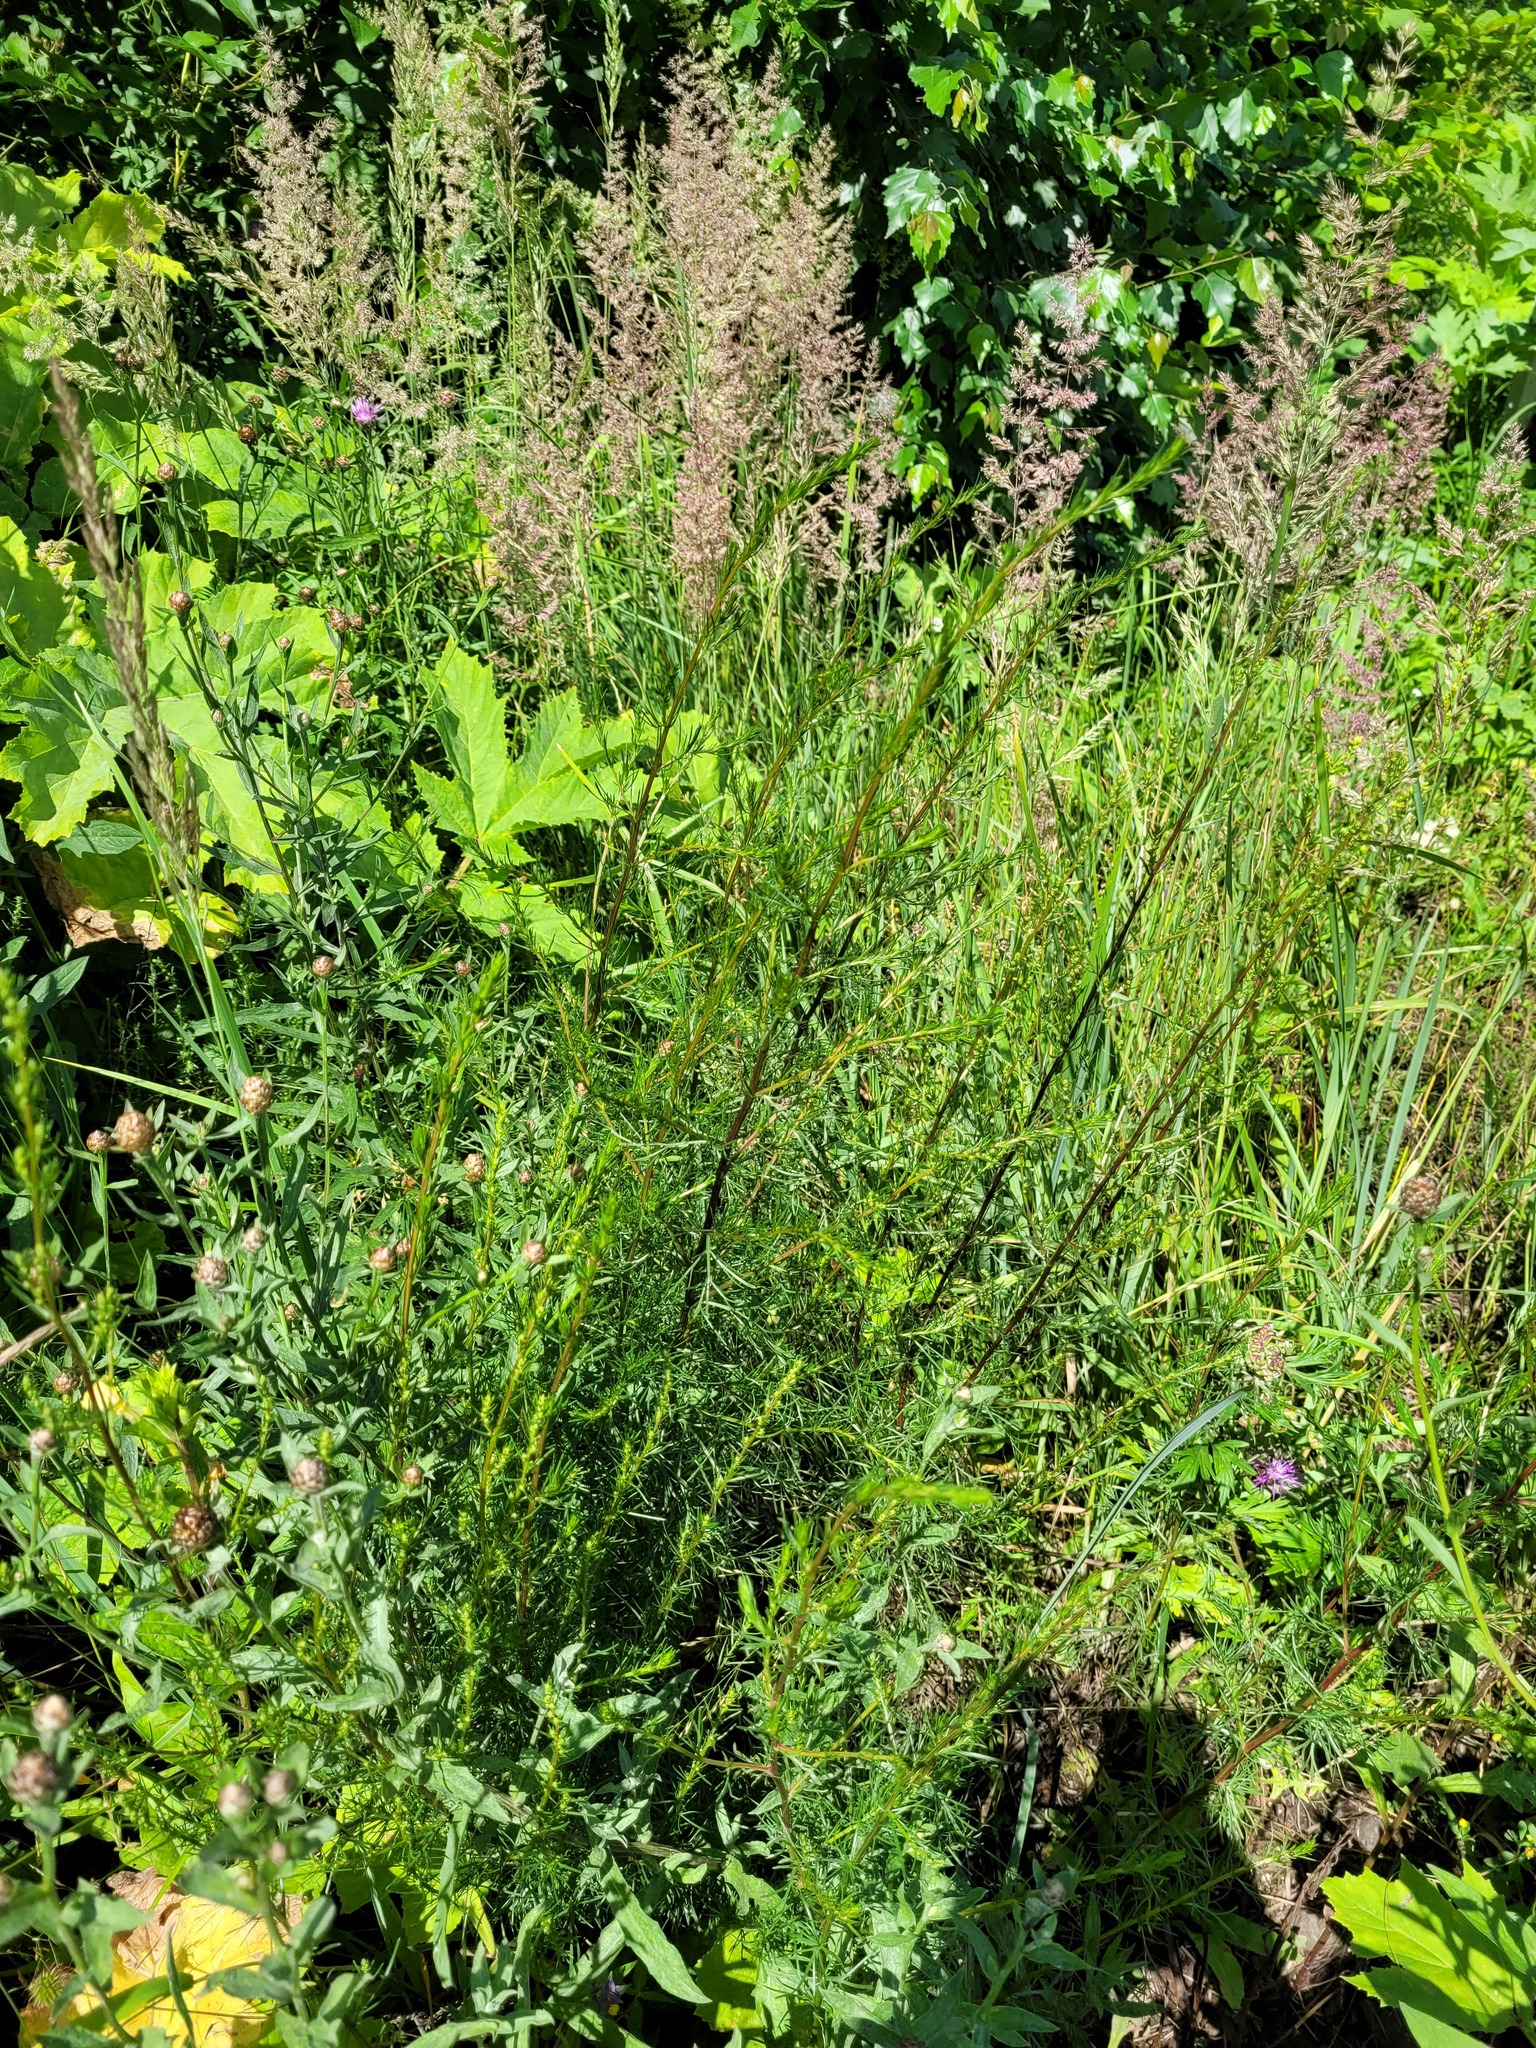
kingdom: Plantae
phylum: Tracheophyta
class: Magnoliopsida
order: Asterales
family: Asteraceae
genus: Artemisia
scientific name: Artemisia campestris
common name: Field wormwood
